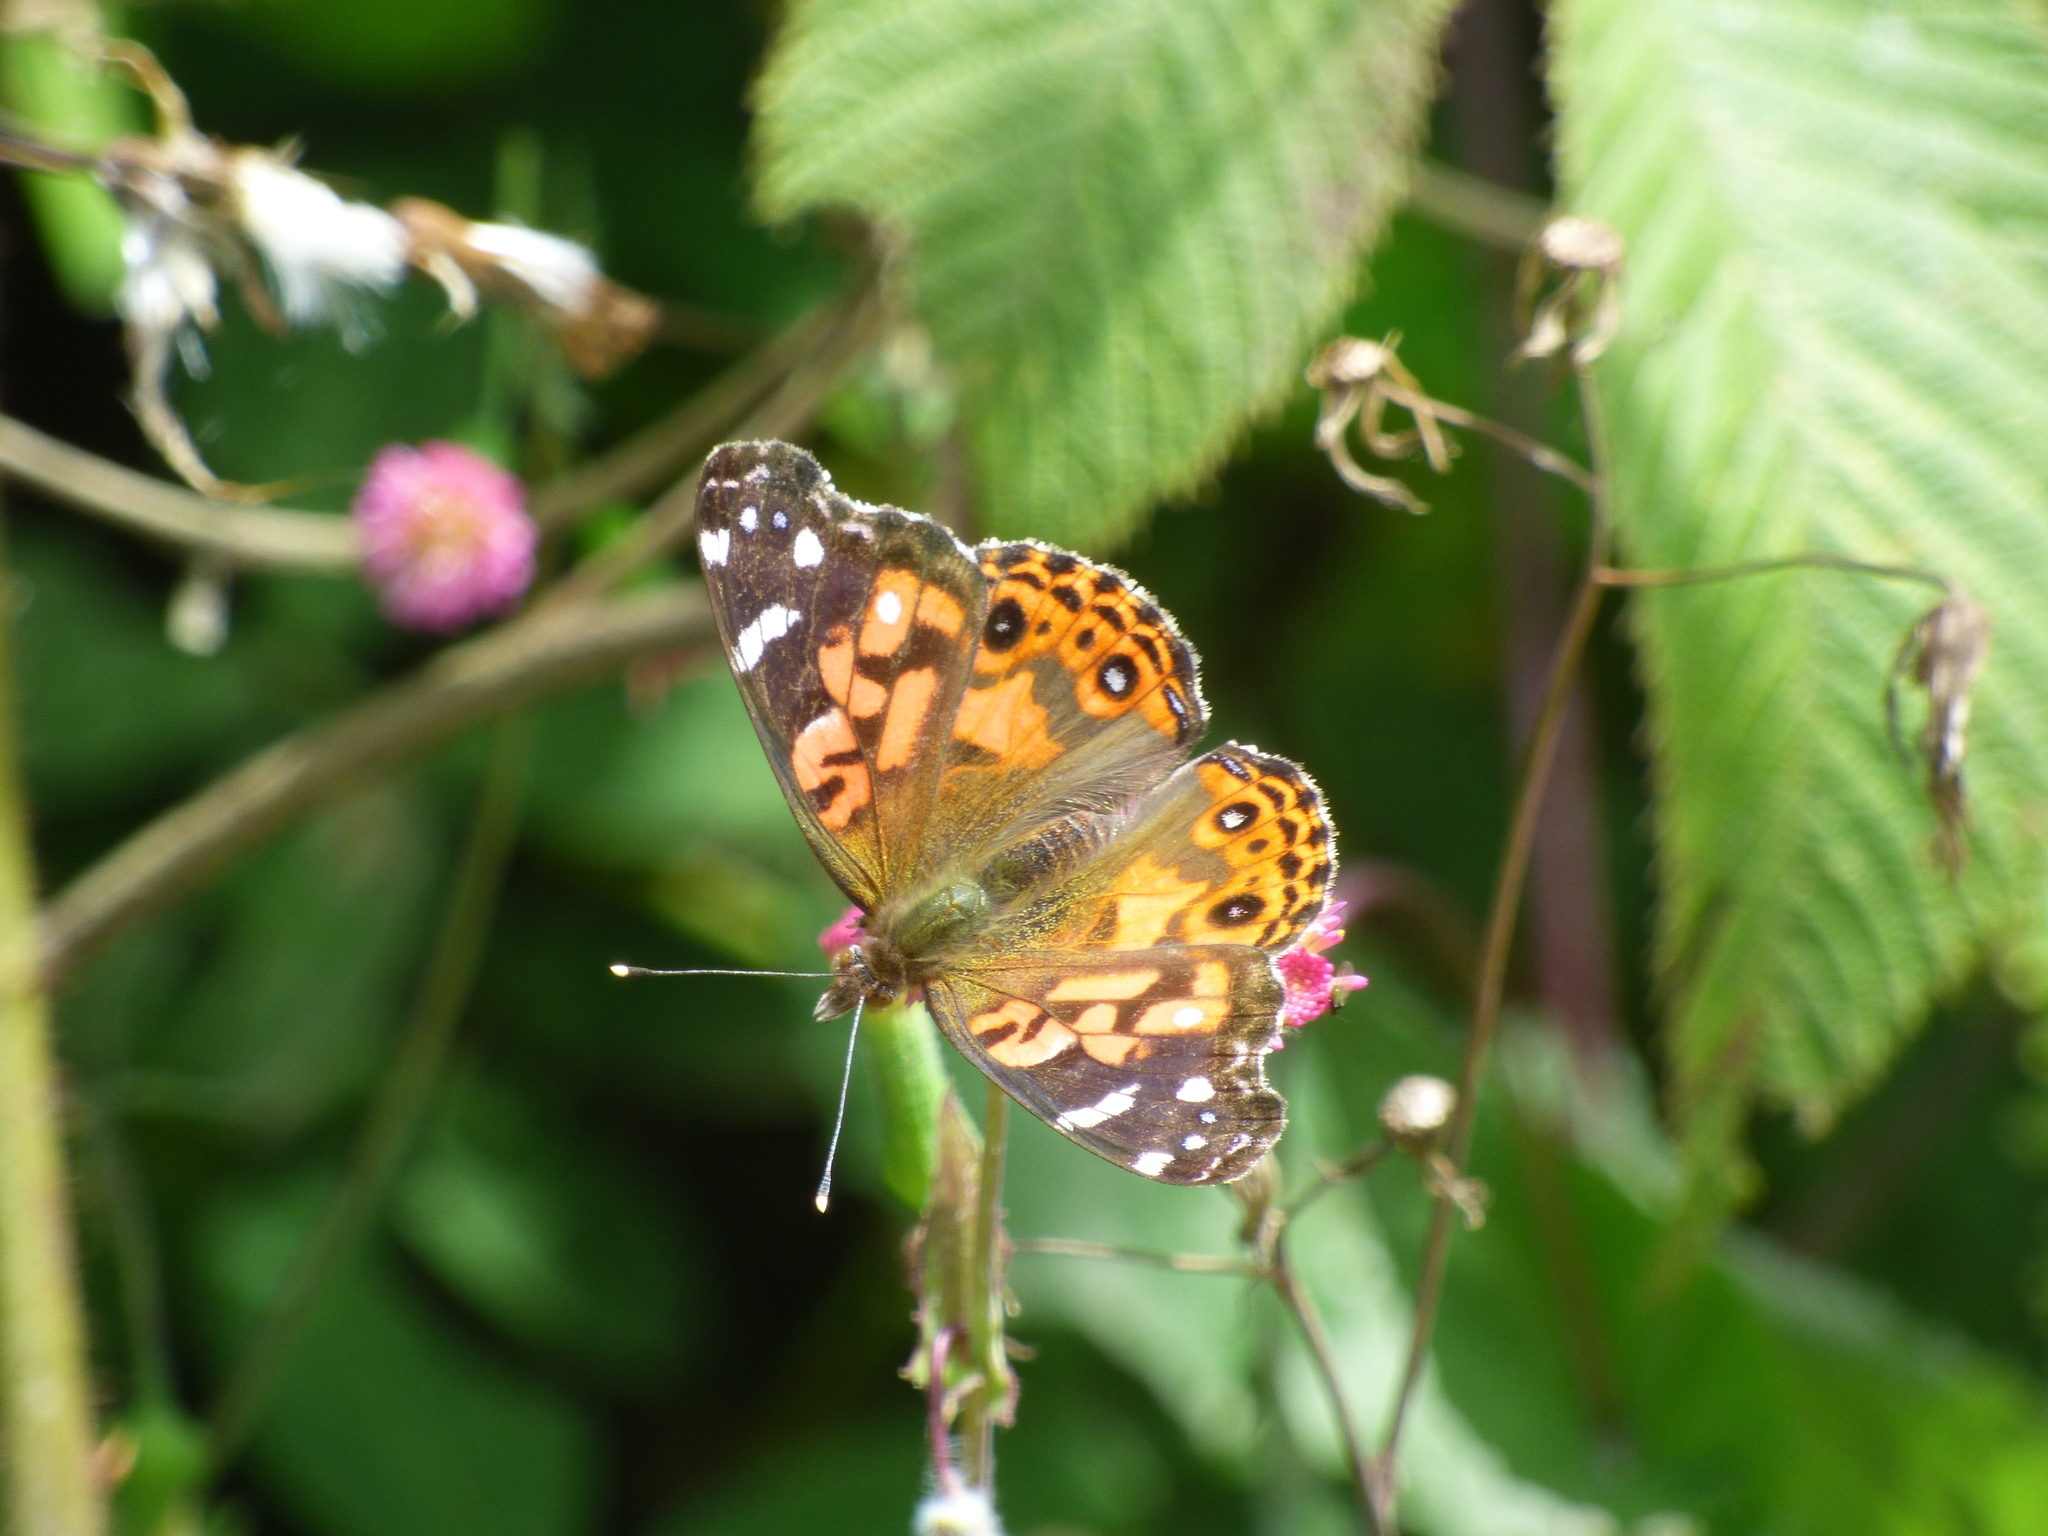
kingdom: Animalia
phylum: Arthropoda
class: Insecta
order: Lepidoptera
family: Nymphalidae
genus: Vanessa
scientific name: Vanessa braziliensis
